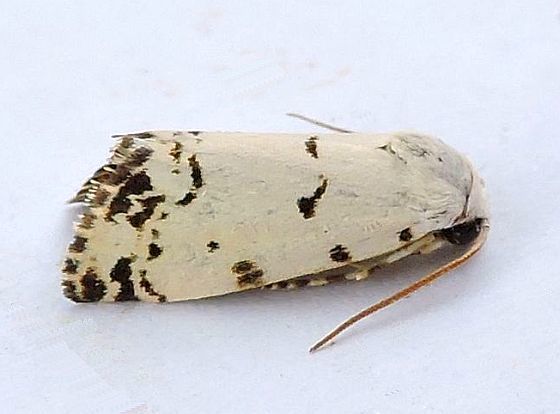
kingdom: Animalia
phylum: Arthropoda
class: Insecta
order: Lepidoptera
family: Noctuidae
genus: Grotella
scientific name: Grotella soror
